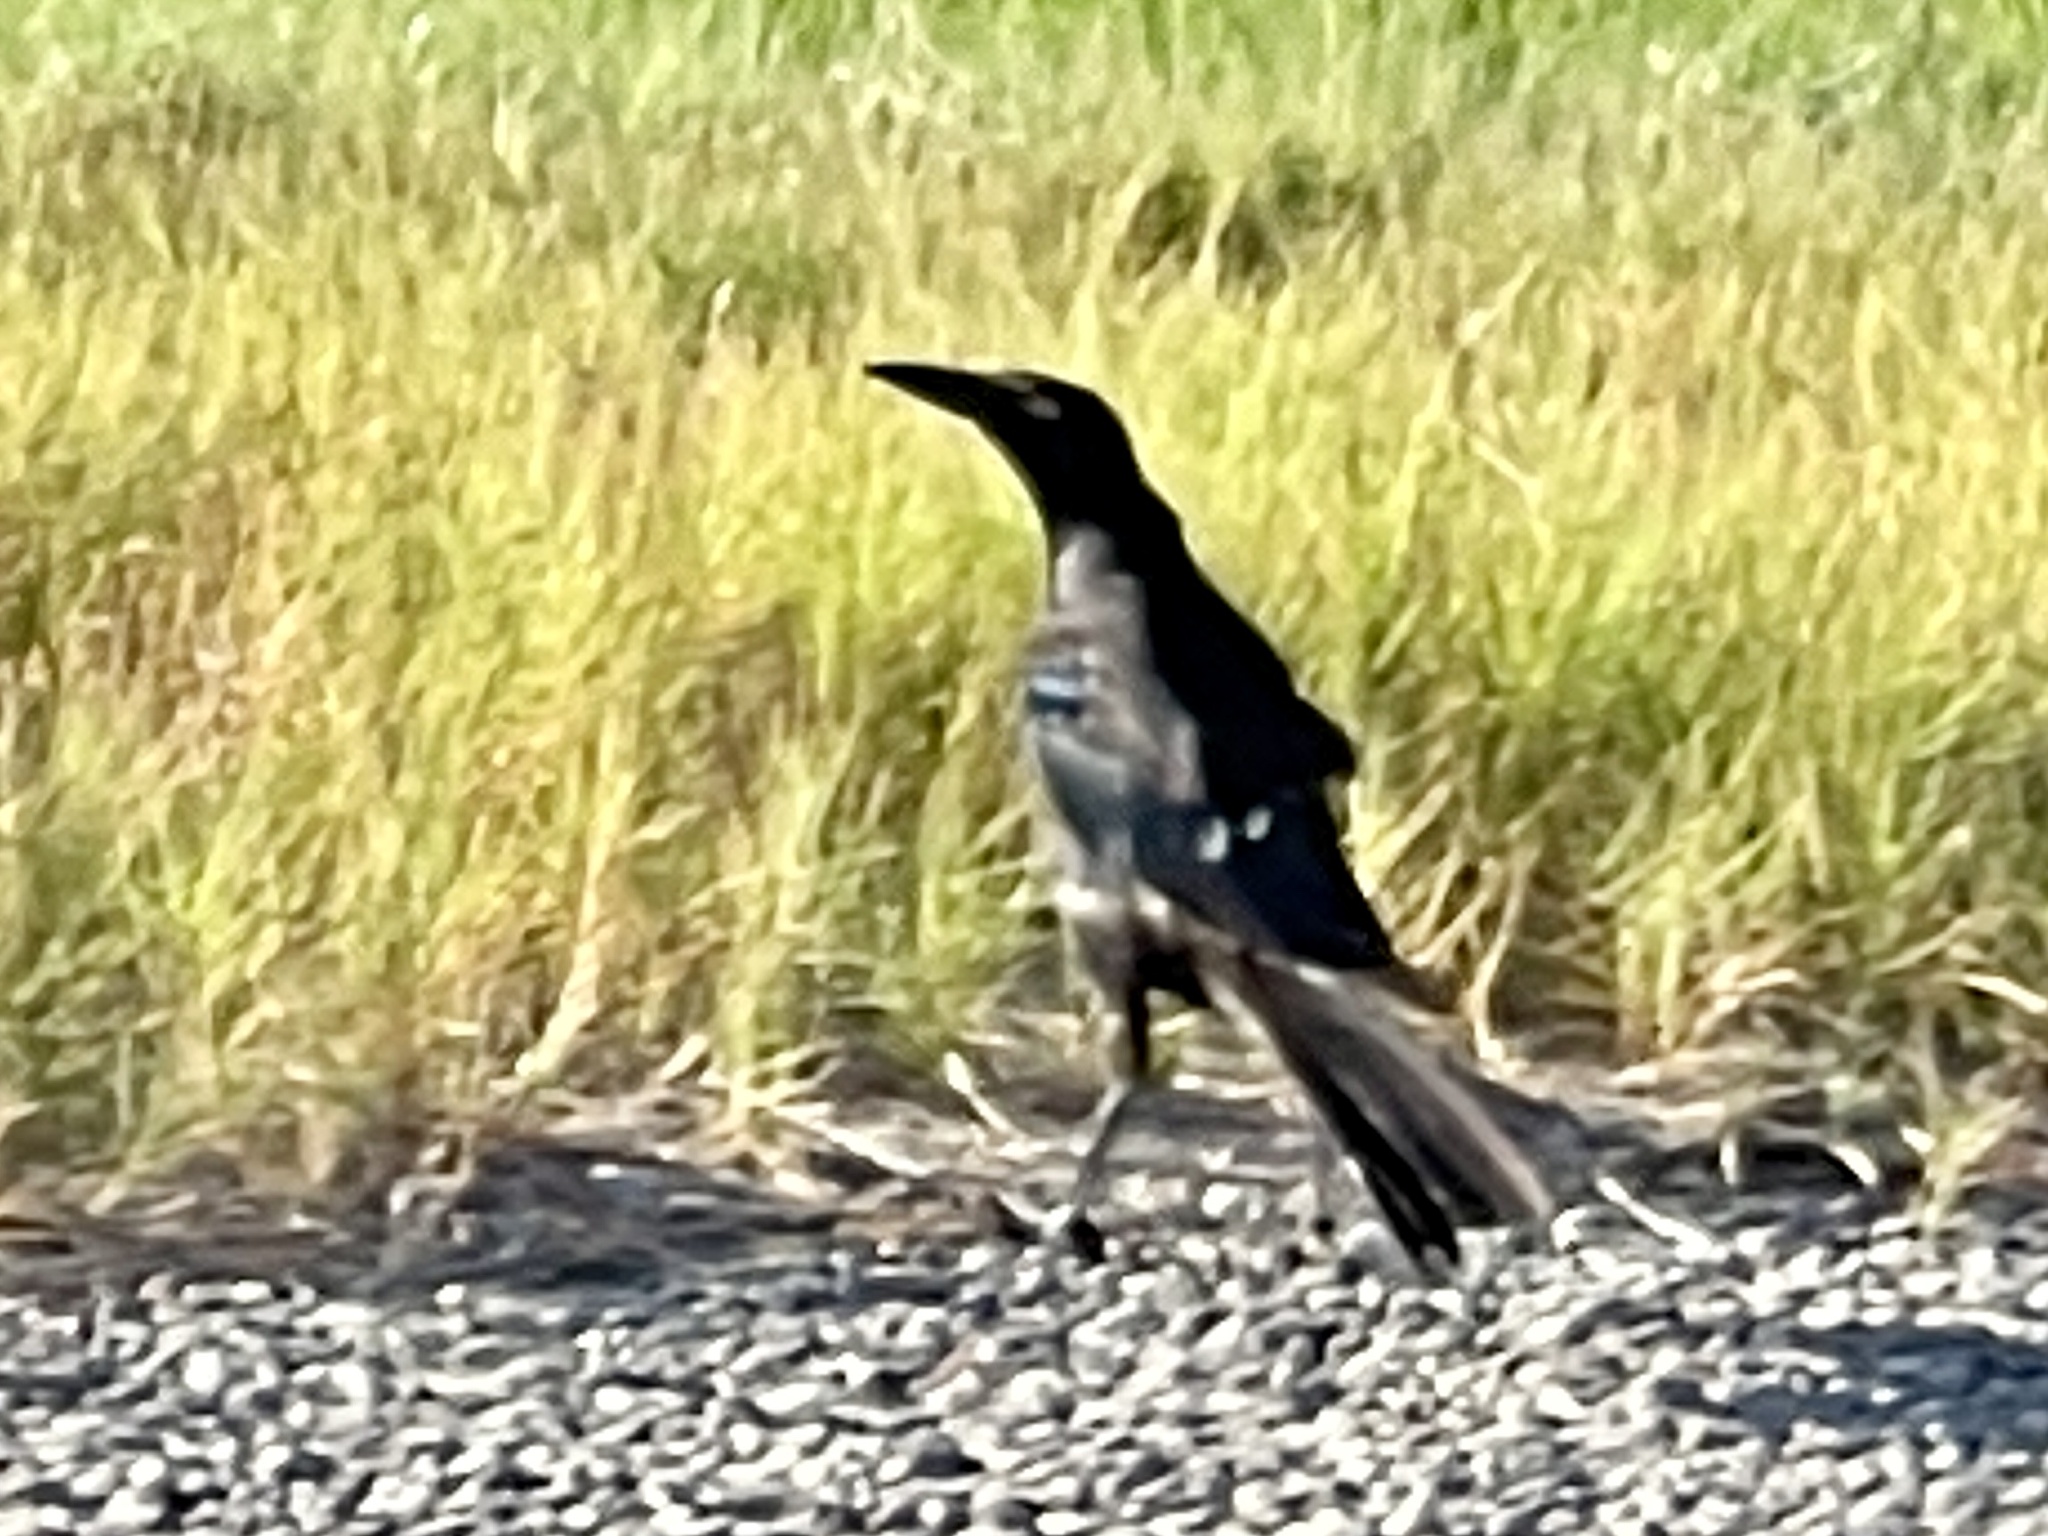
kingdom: Animalia
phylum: Chordata
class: Aves
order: Passeriformes
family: Icteridae
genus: Quiscalus
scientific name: Quiscalus mexicanus
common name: Great-tailed grackle
